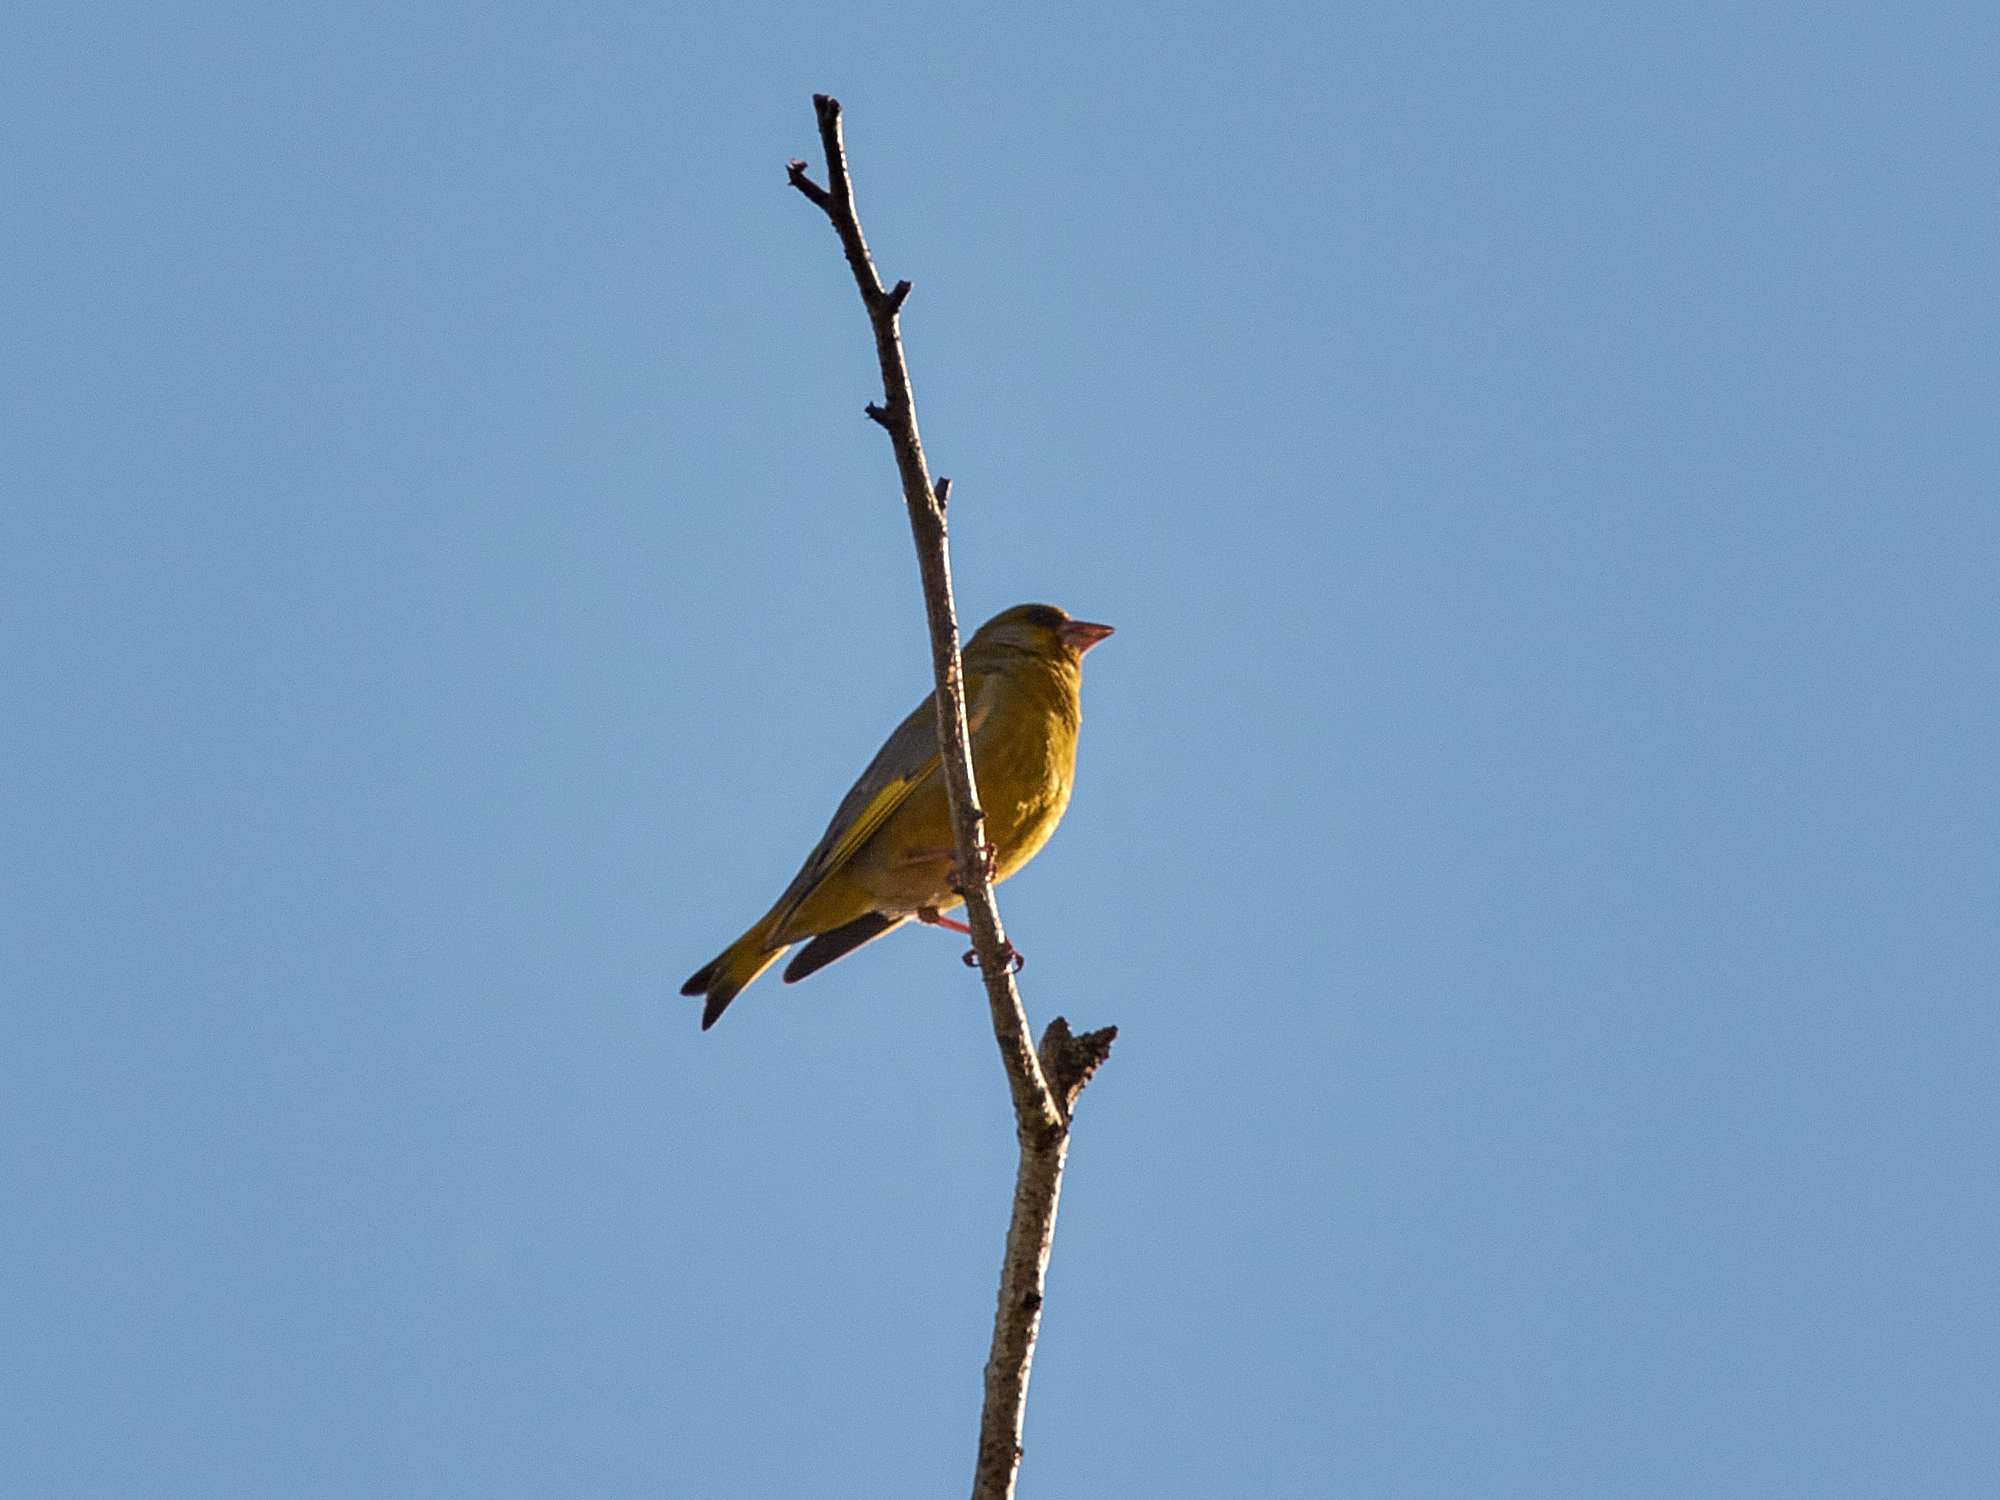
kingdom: Plantae
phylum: Tracheophyta
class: Liliopsida
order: Poales
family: Poaceae
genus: Chloris
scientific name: Chloris chloris
